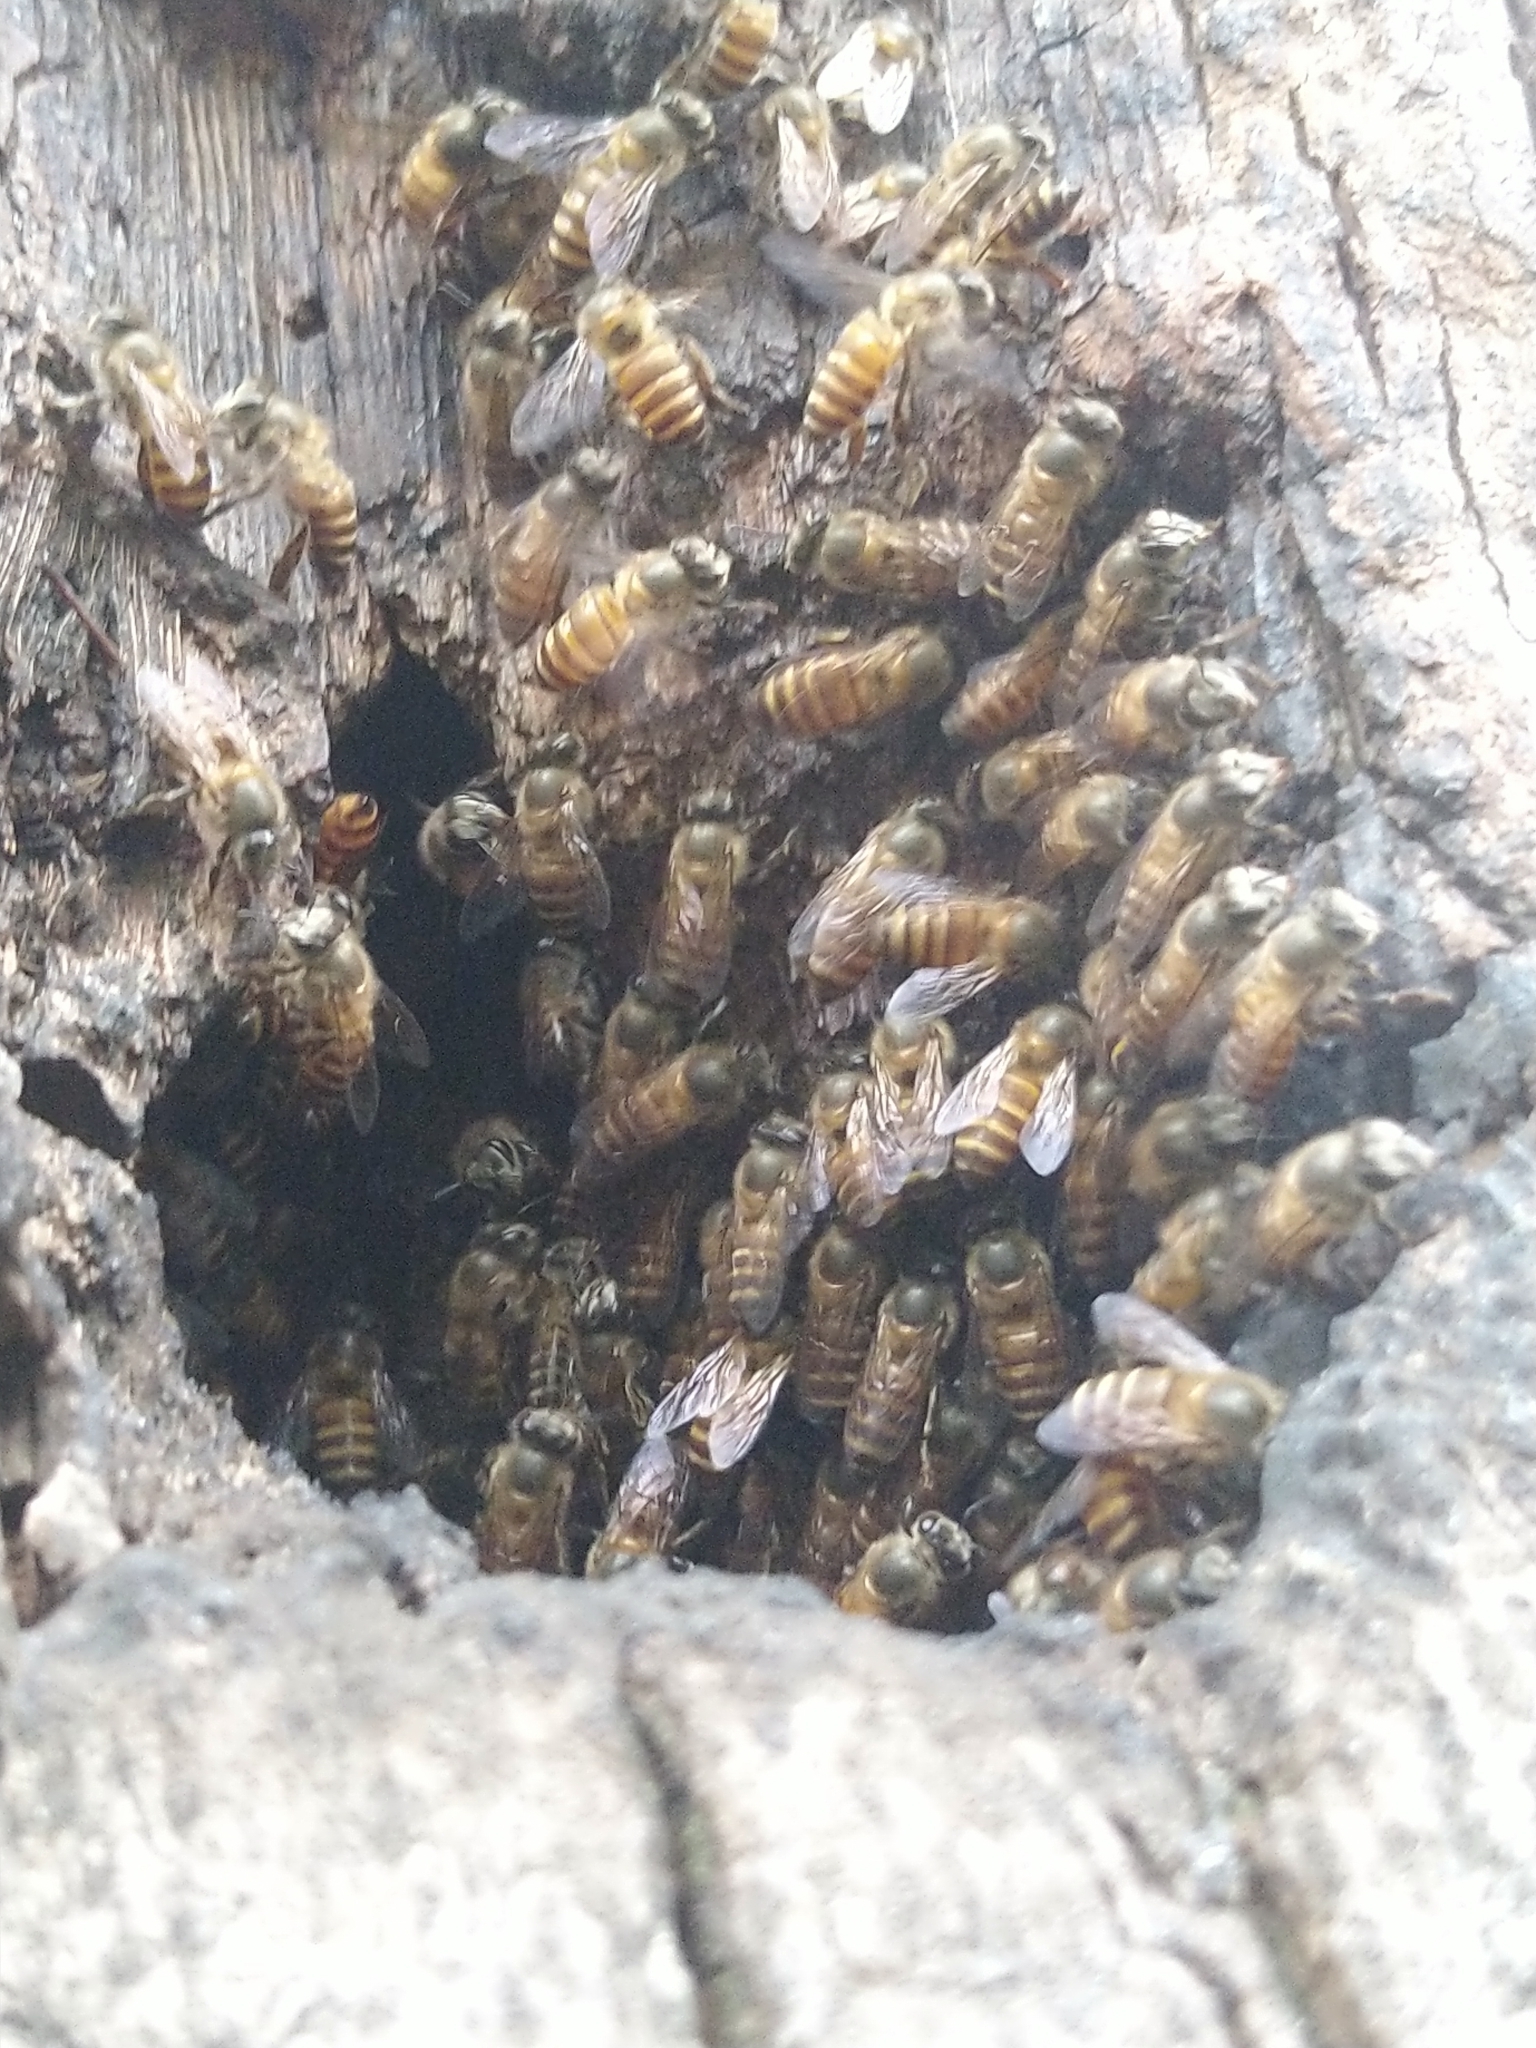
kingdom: Animalia
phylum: Arthropoda
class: Insecta
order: Hymenoptera
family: Apidae
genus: Apis
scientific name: Apis cerana
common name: Honey bee
